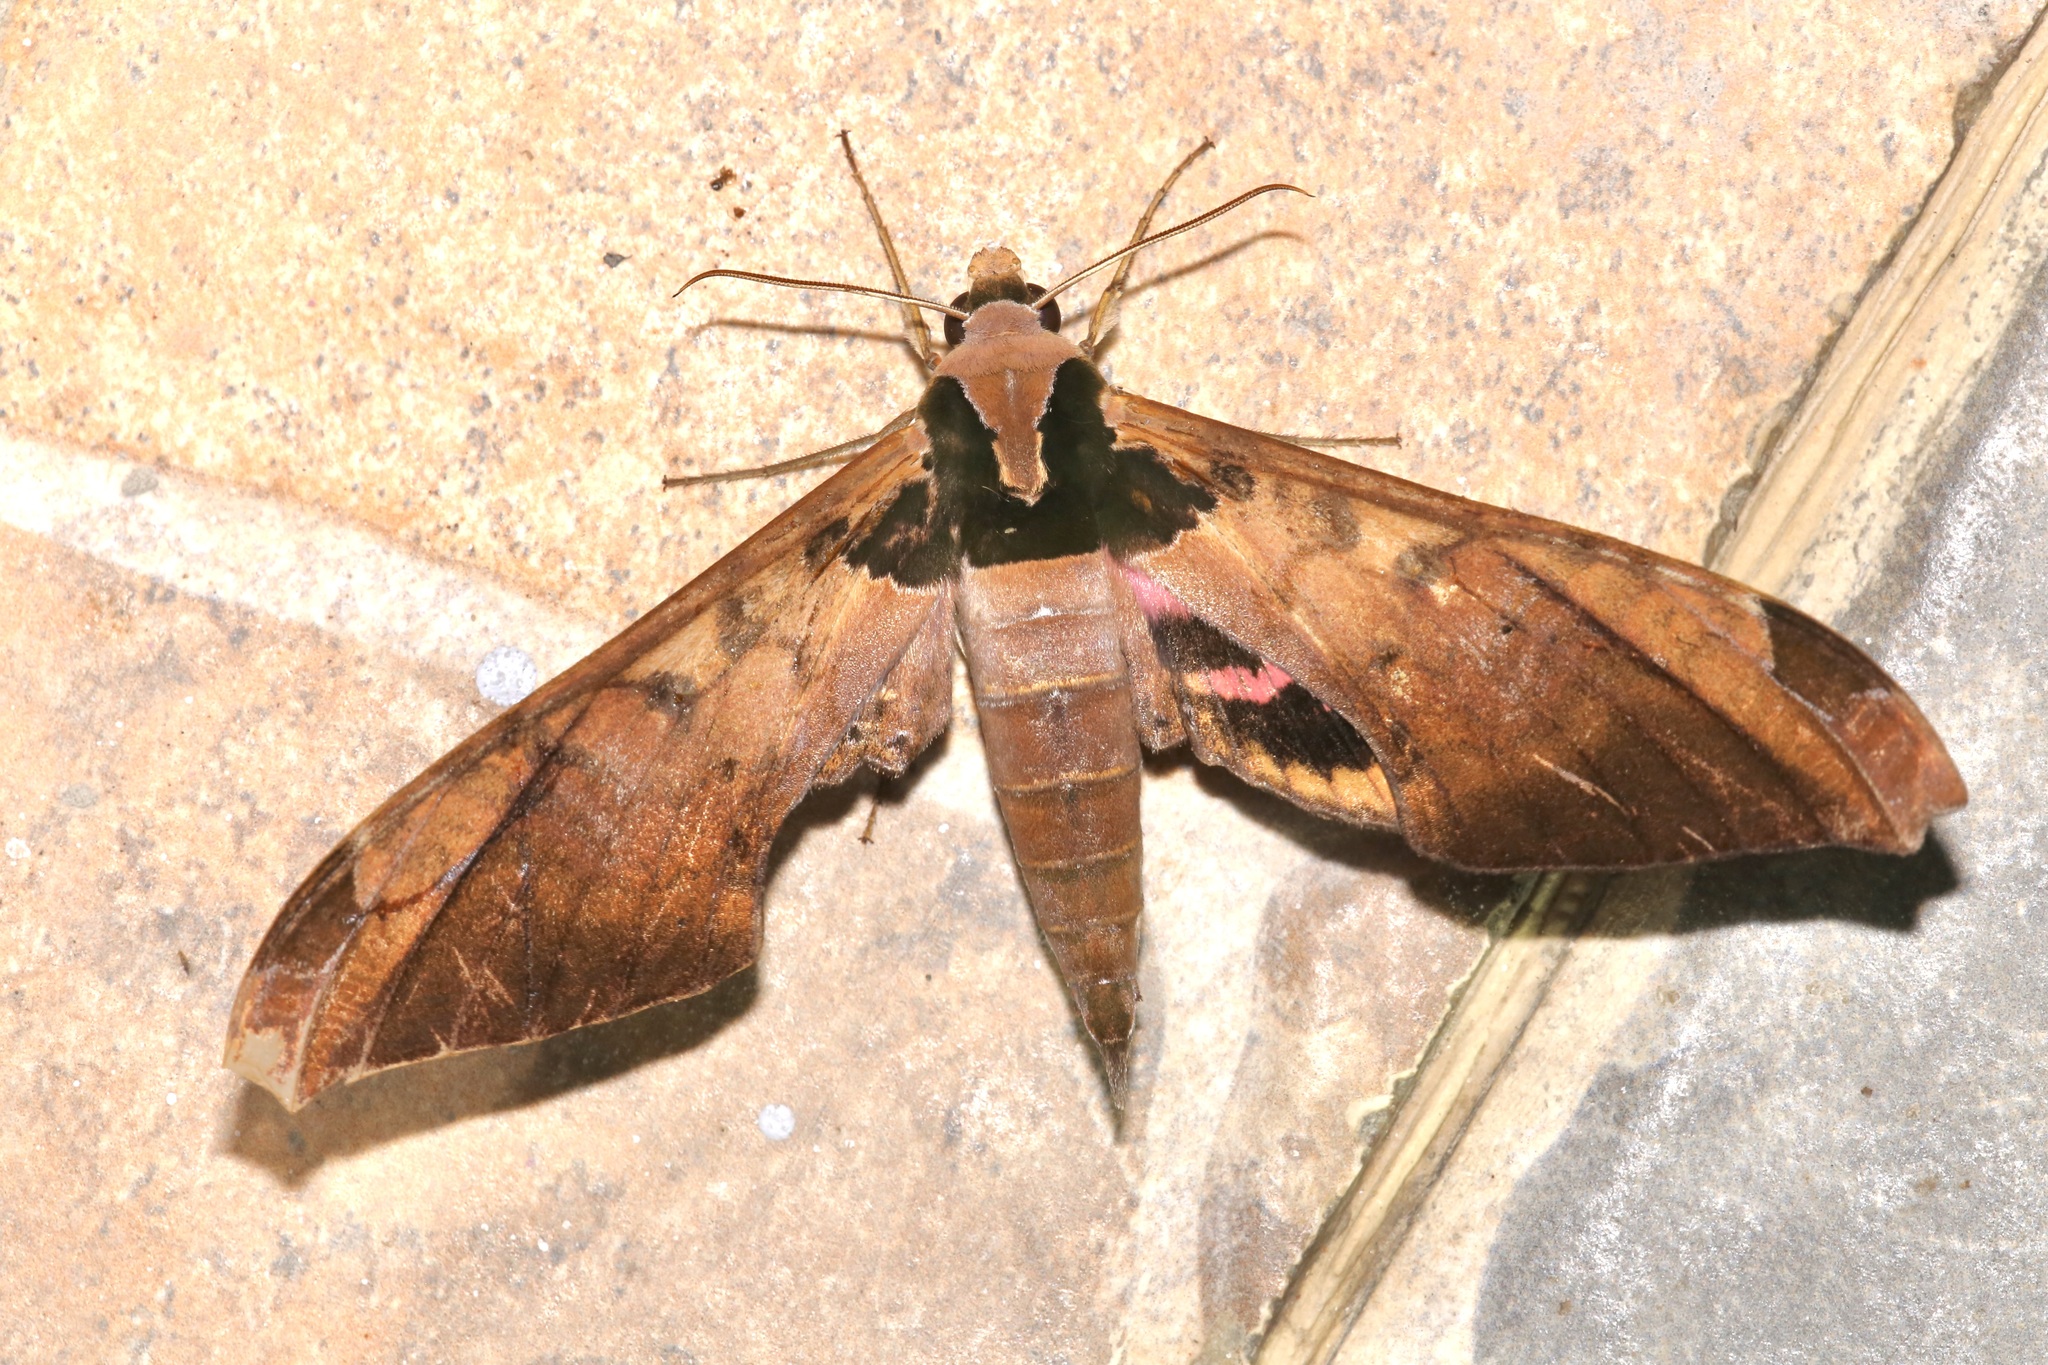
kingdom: Animalia
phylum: Arthropoda
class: Insecta
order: Lepidoptera
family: Sphingidae
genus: Adhemarius
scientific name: Adhemarius ypsilon
